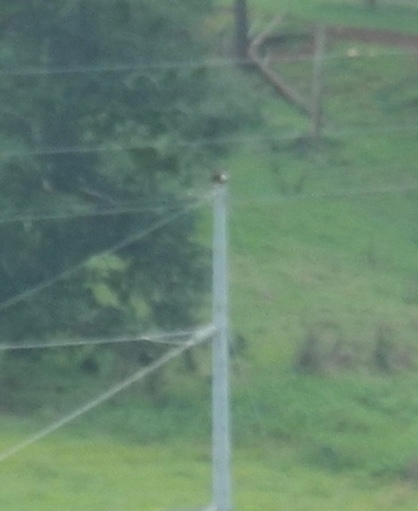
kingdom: Animalia
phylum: Chordata
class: Aves
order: Accipitriformes
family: Accipitridae
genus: Haliaeetus
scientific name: Haliaeetus leucocephalus
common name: Bald eagle
